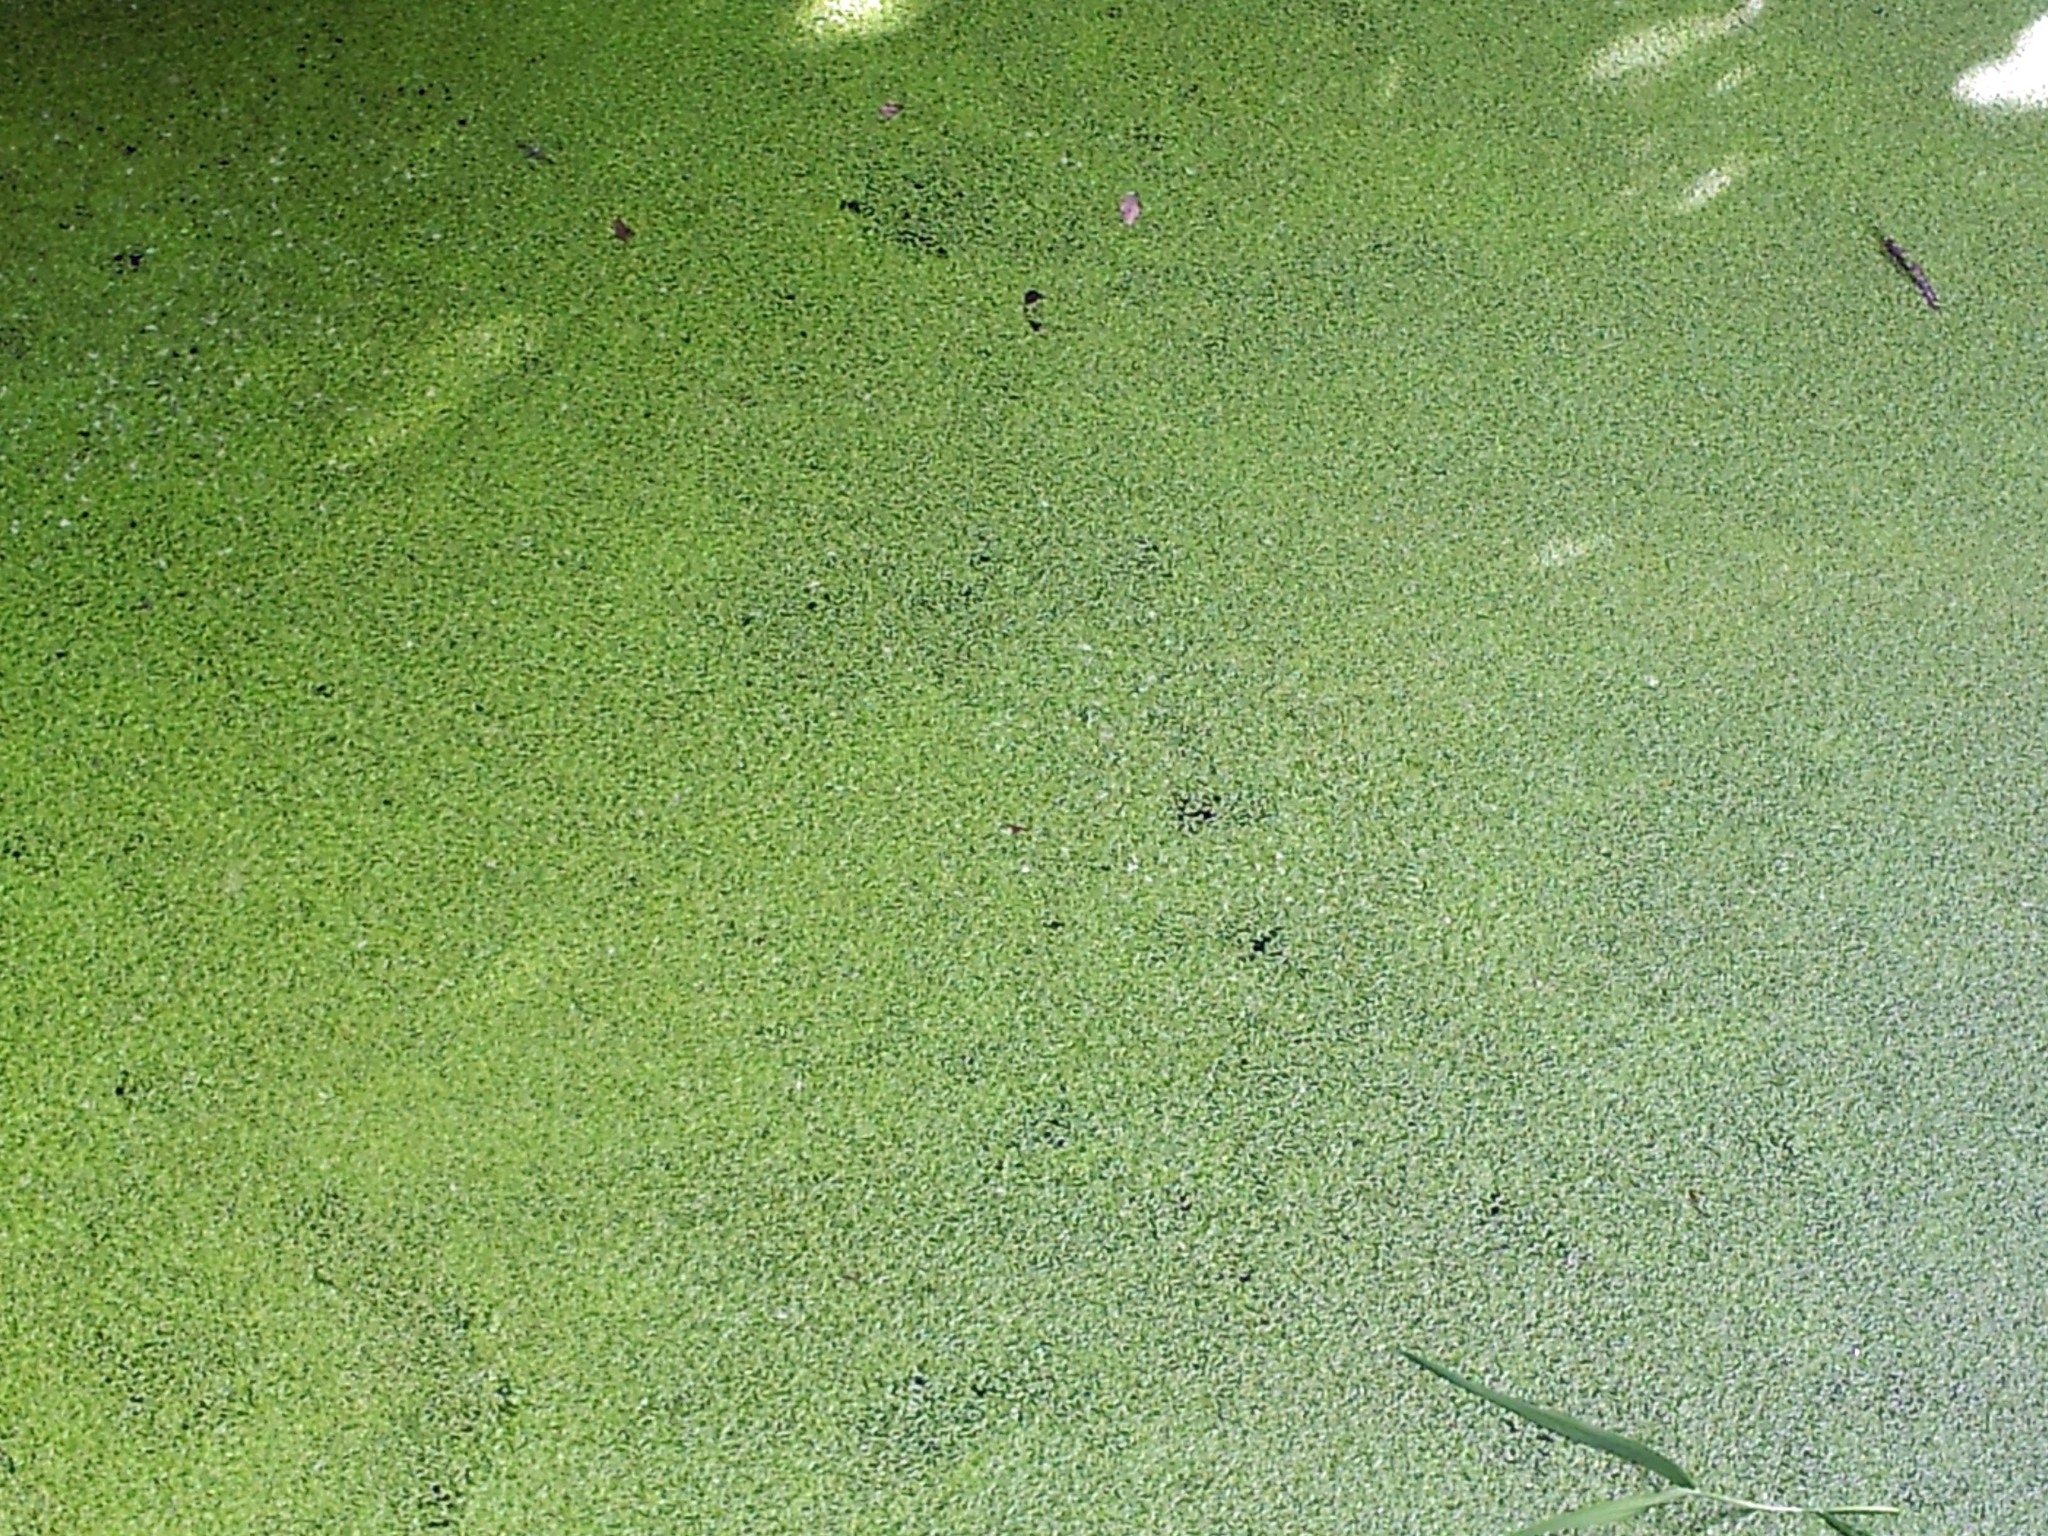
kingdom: Plantae
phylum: Tracheophyta
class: Liliopsida
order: Alismatales
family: Araceae
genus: Lemna
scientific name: Lemna aequinoctialis
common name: Duckweed
